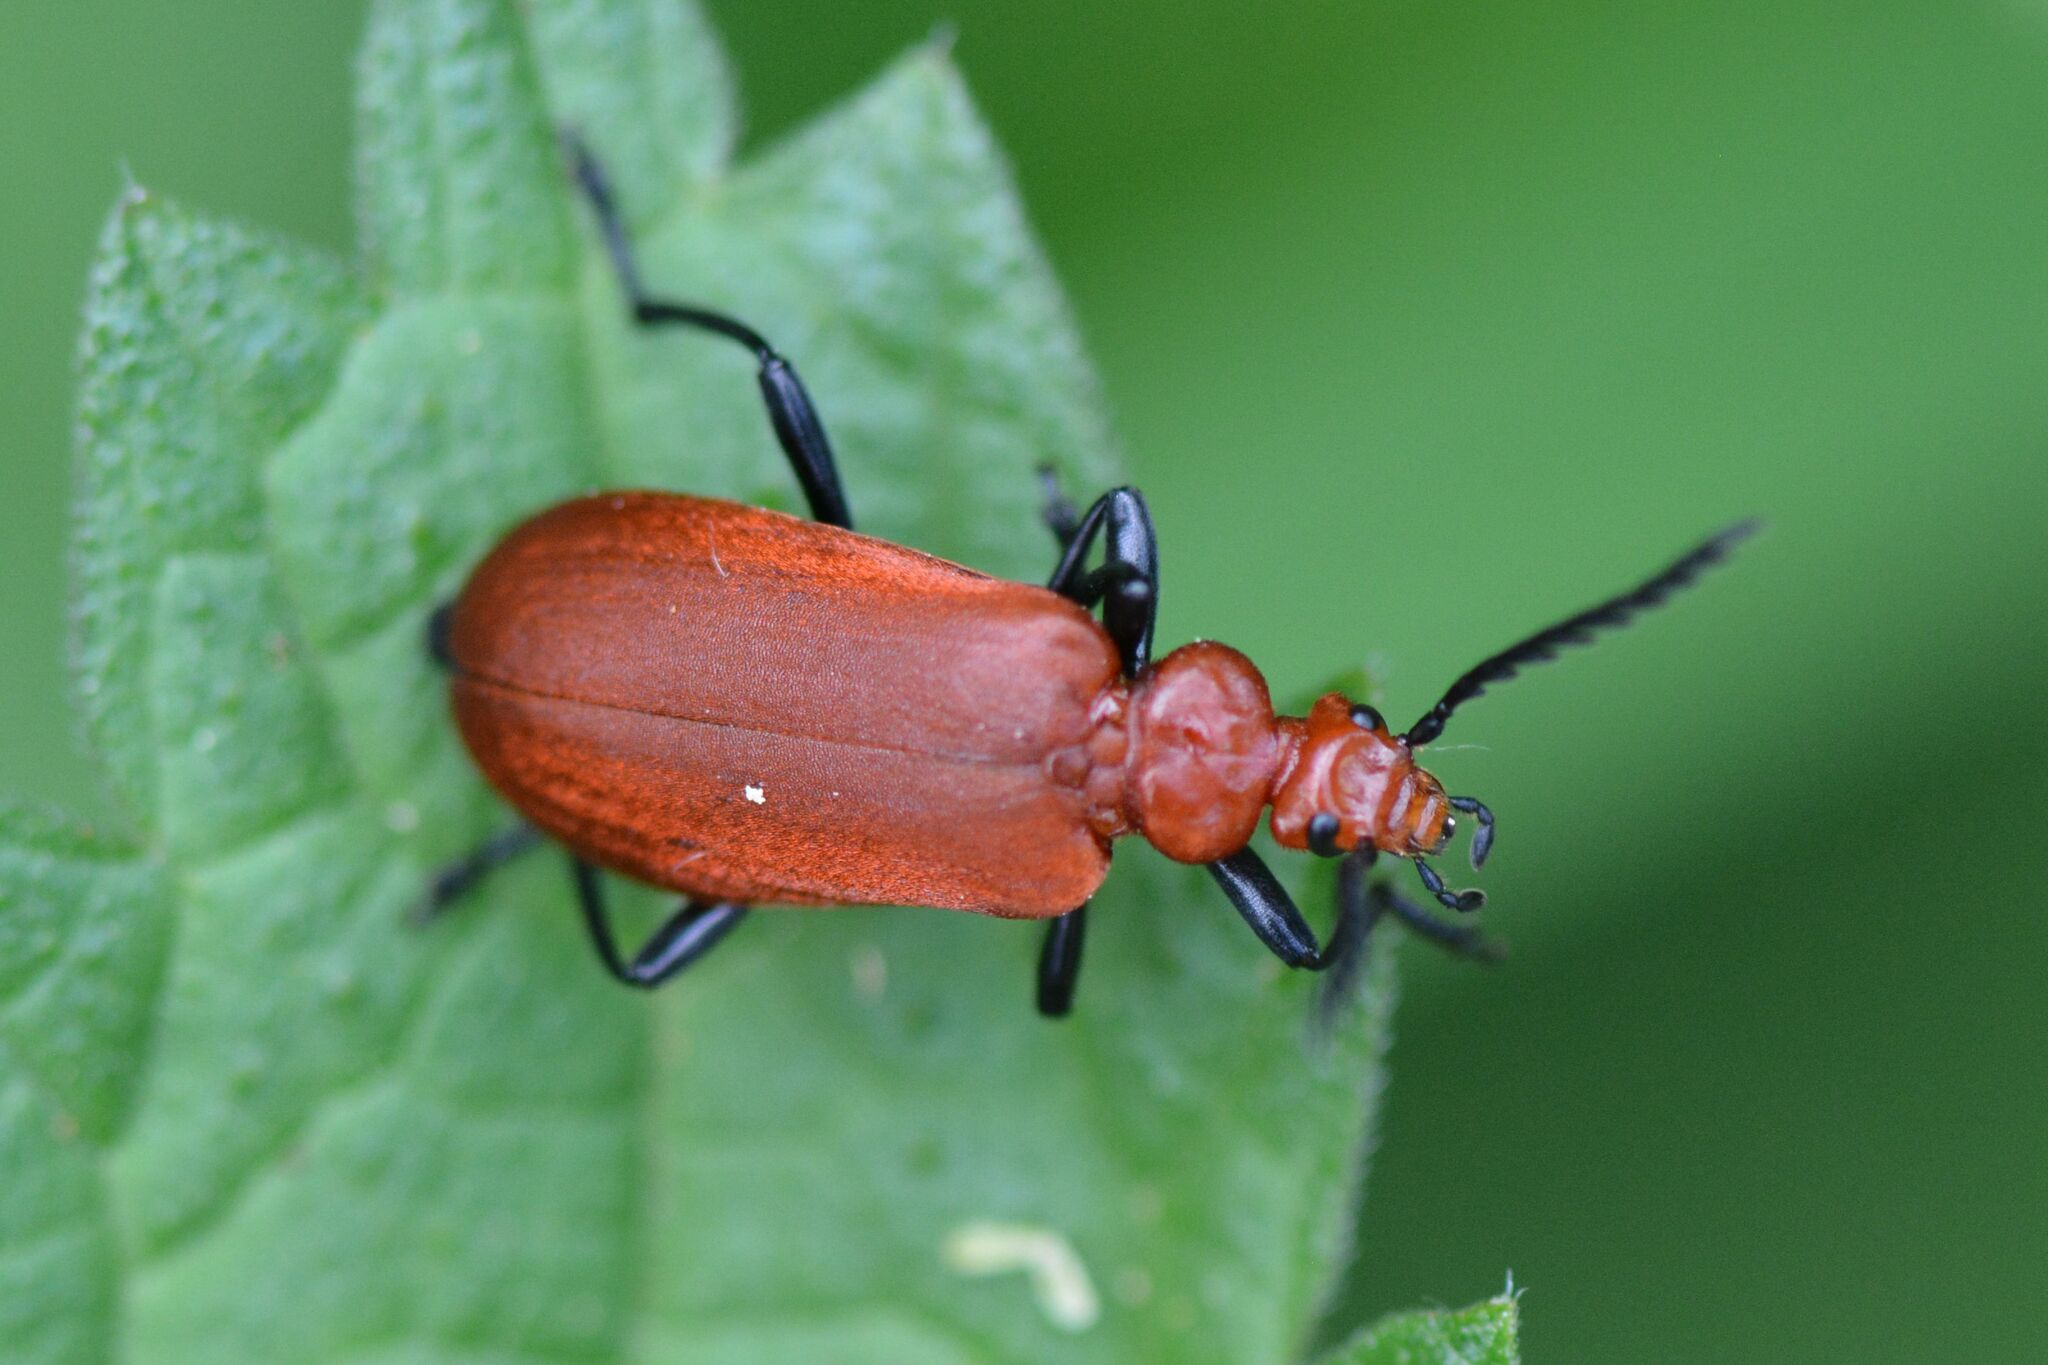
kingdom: Animalia
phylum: Arthropoda
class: Insecta
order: Coleoptera
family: Pyrochroidae
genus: Pyrochroa
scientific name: Pyrochroa serraticornis
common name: Red-headed cardinal beetle
